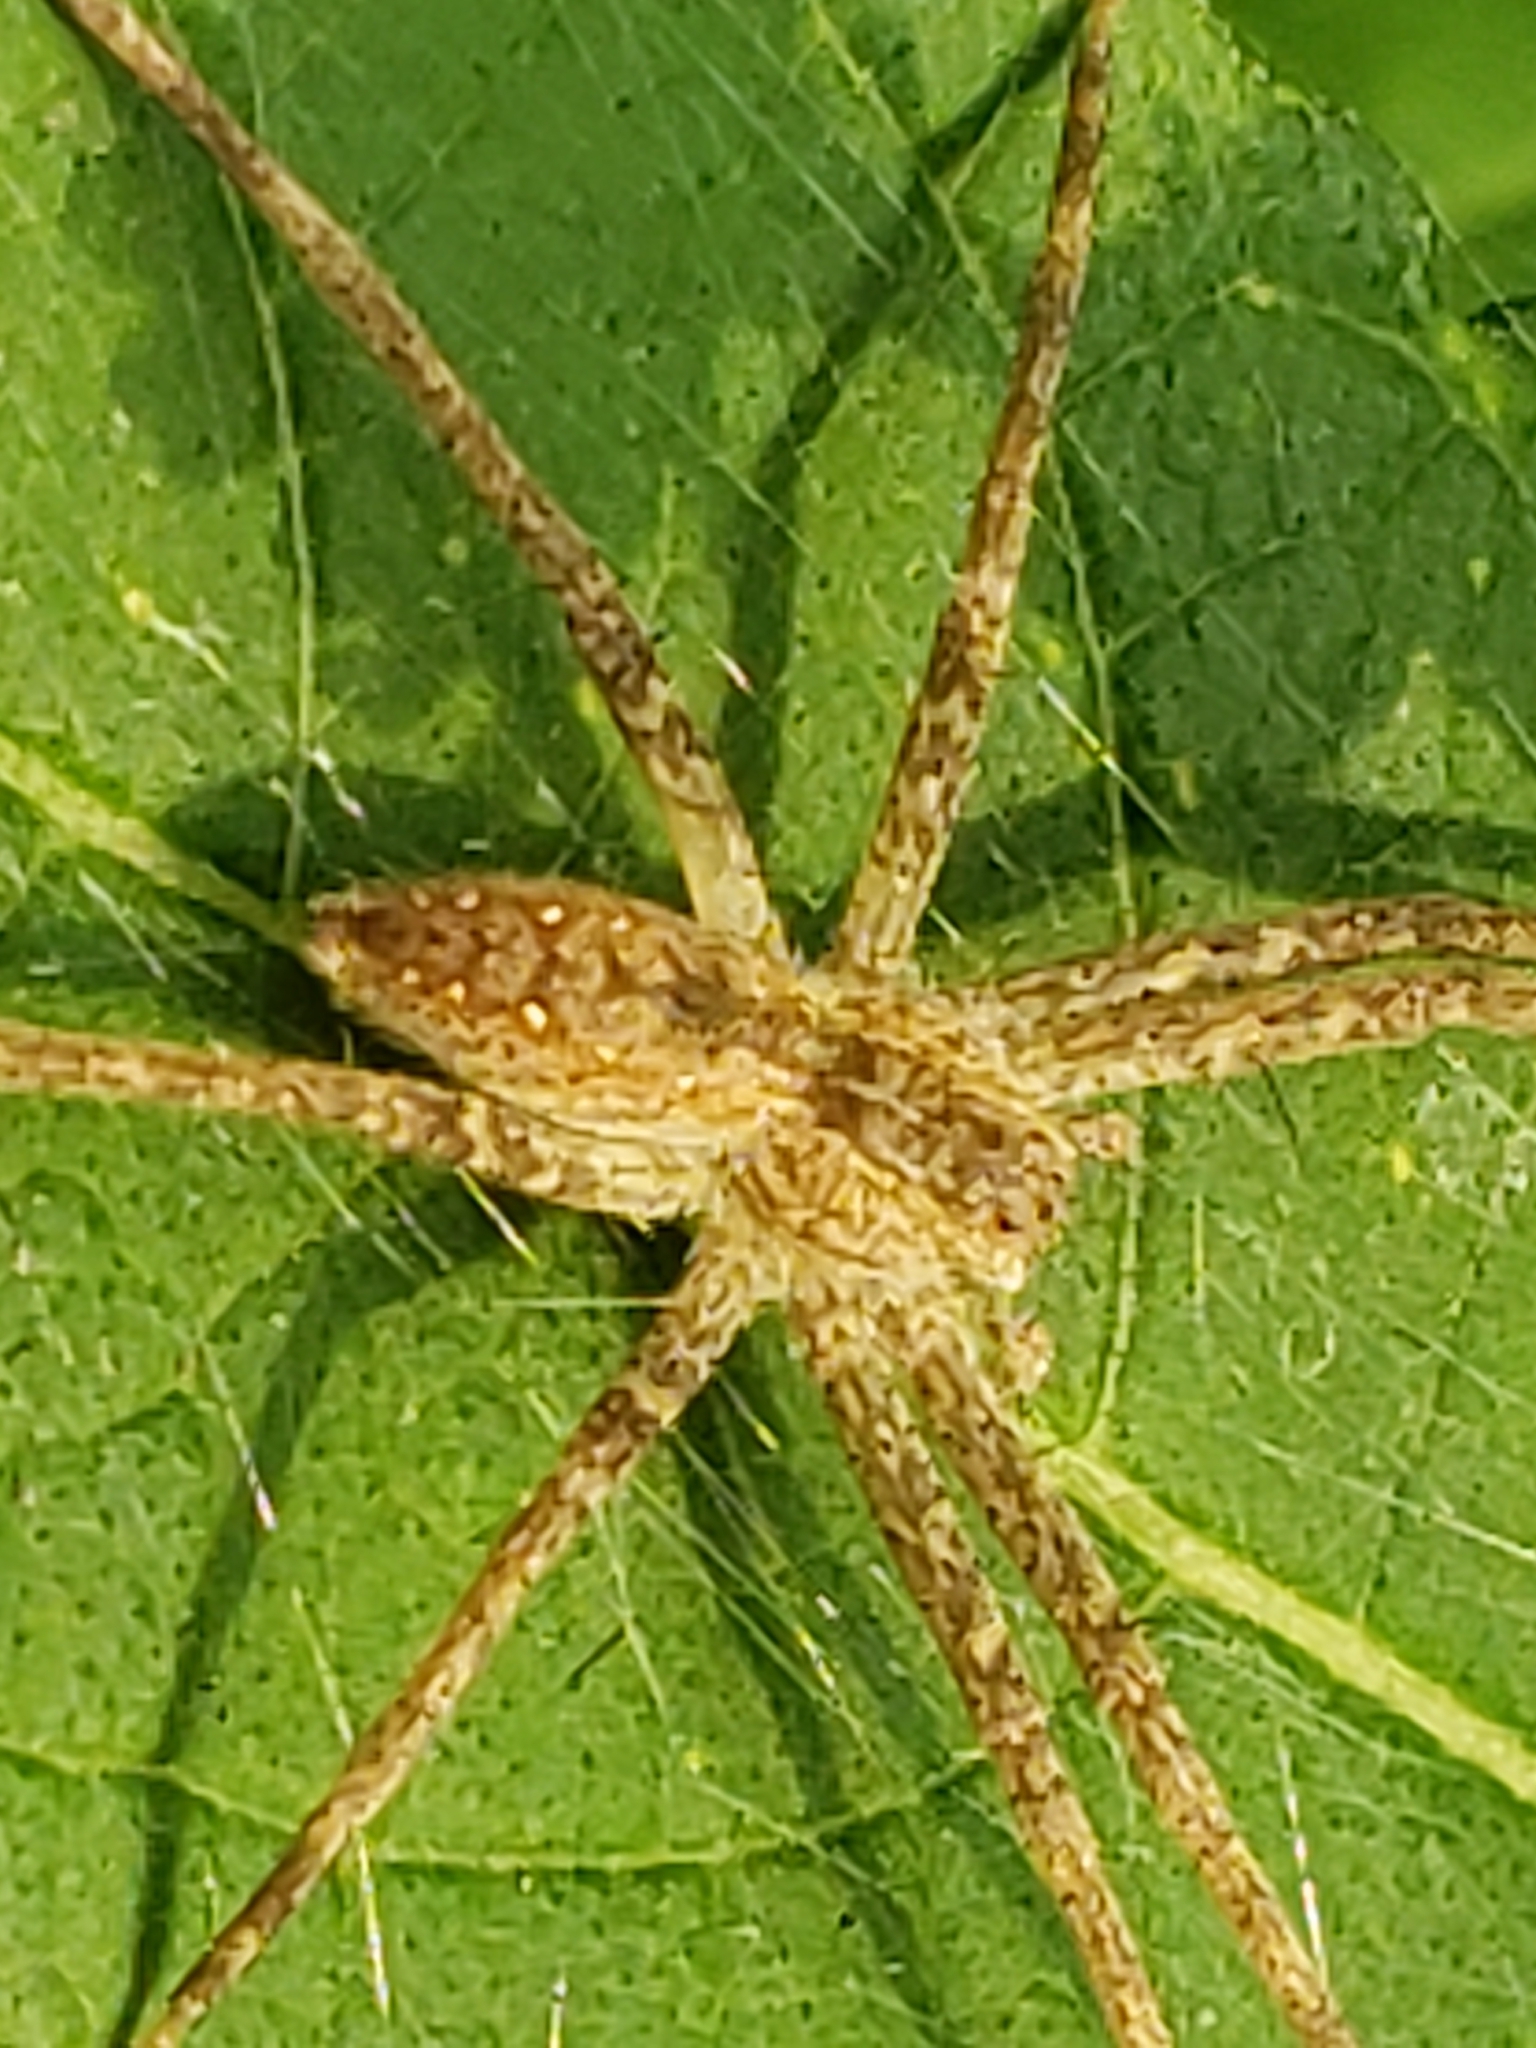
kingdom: Animalia
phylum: Arthropoda
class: Arachnida
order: Araneae
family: Pisauridae
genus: Pisaurina
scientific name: Pisaurina mira
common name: American nursery web spider
